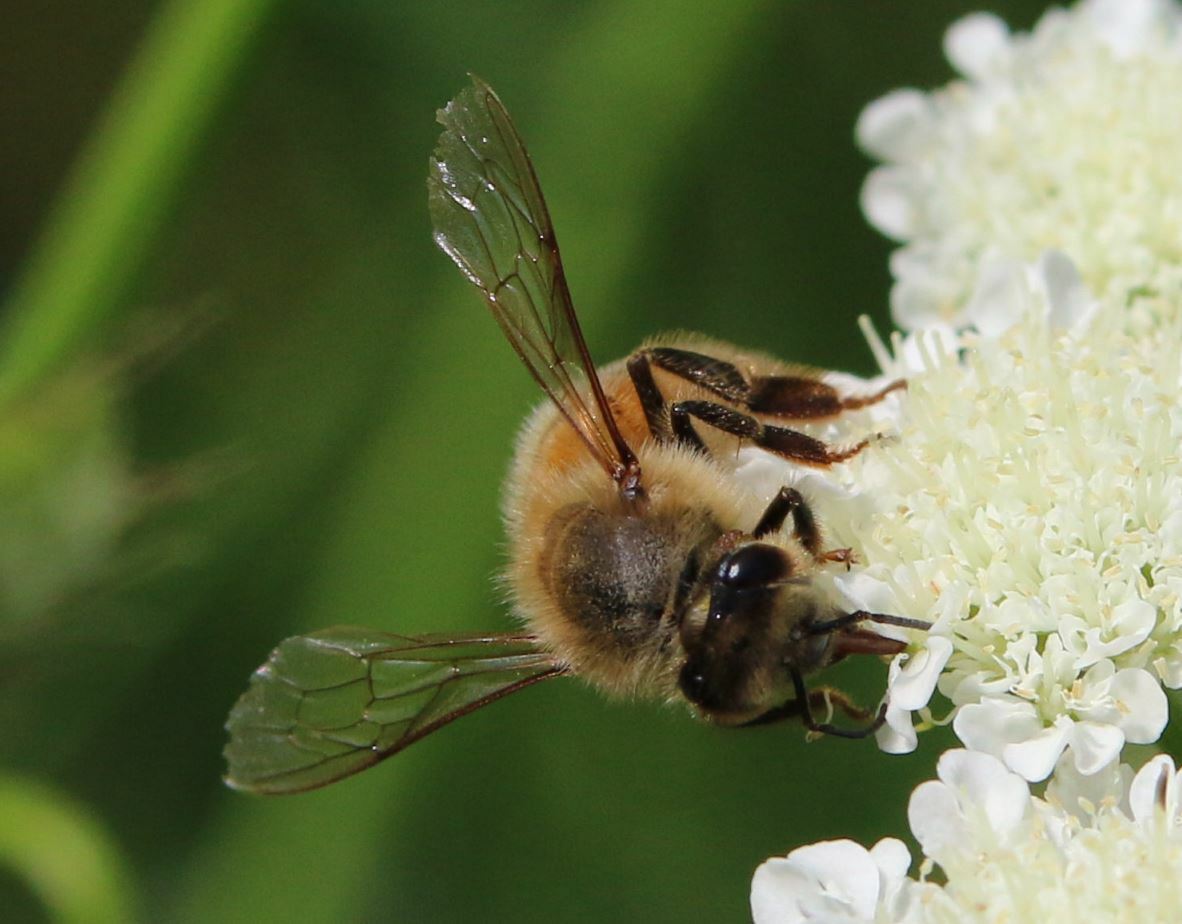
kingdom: Animalia
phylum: Arthropoda
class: Insecta
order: Hymenoptera
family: Apidae
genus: Apis
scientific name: Apis mellifera
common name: Honey bee
